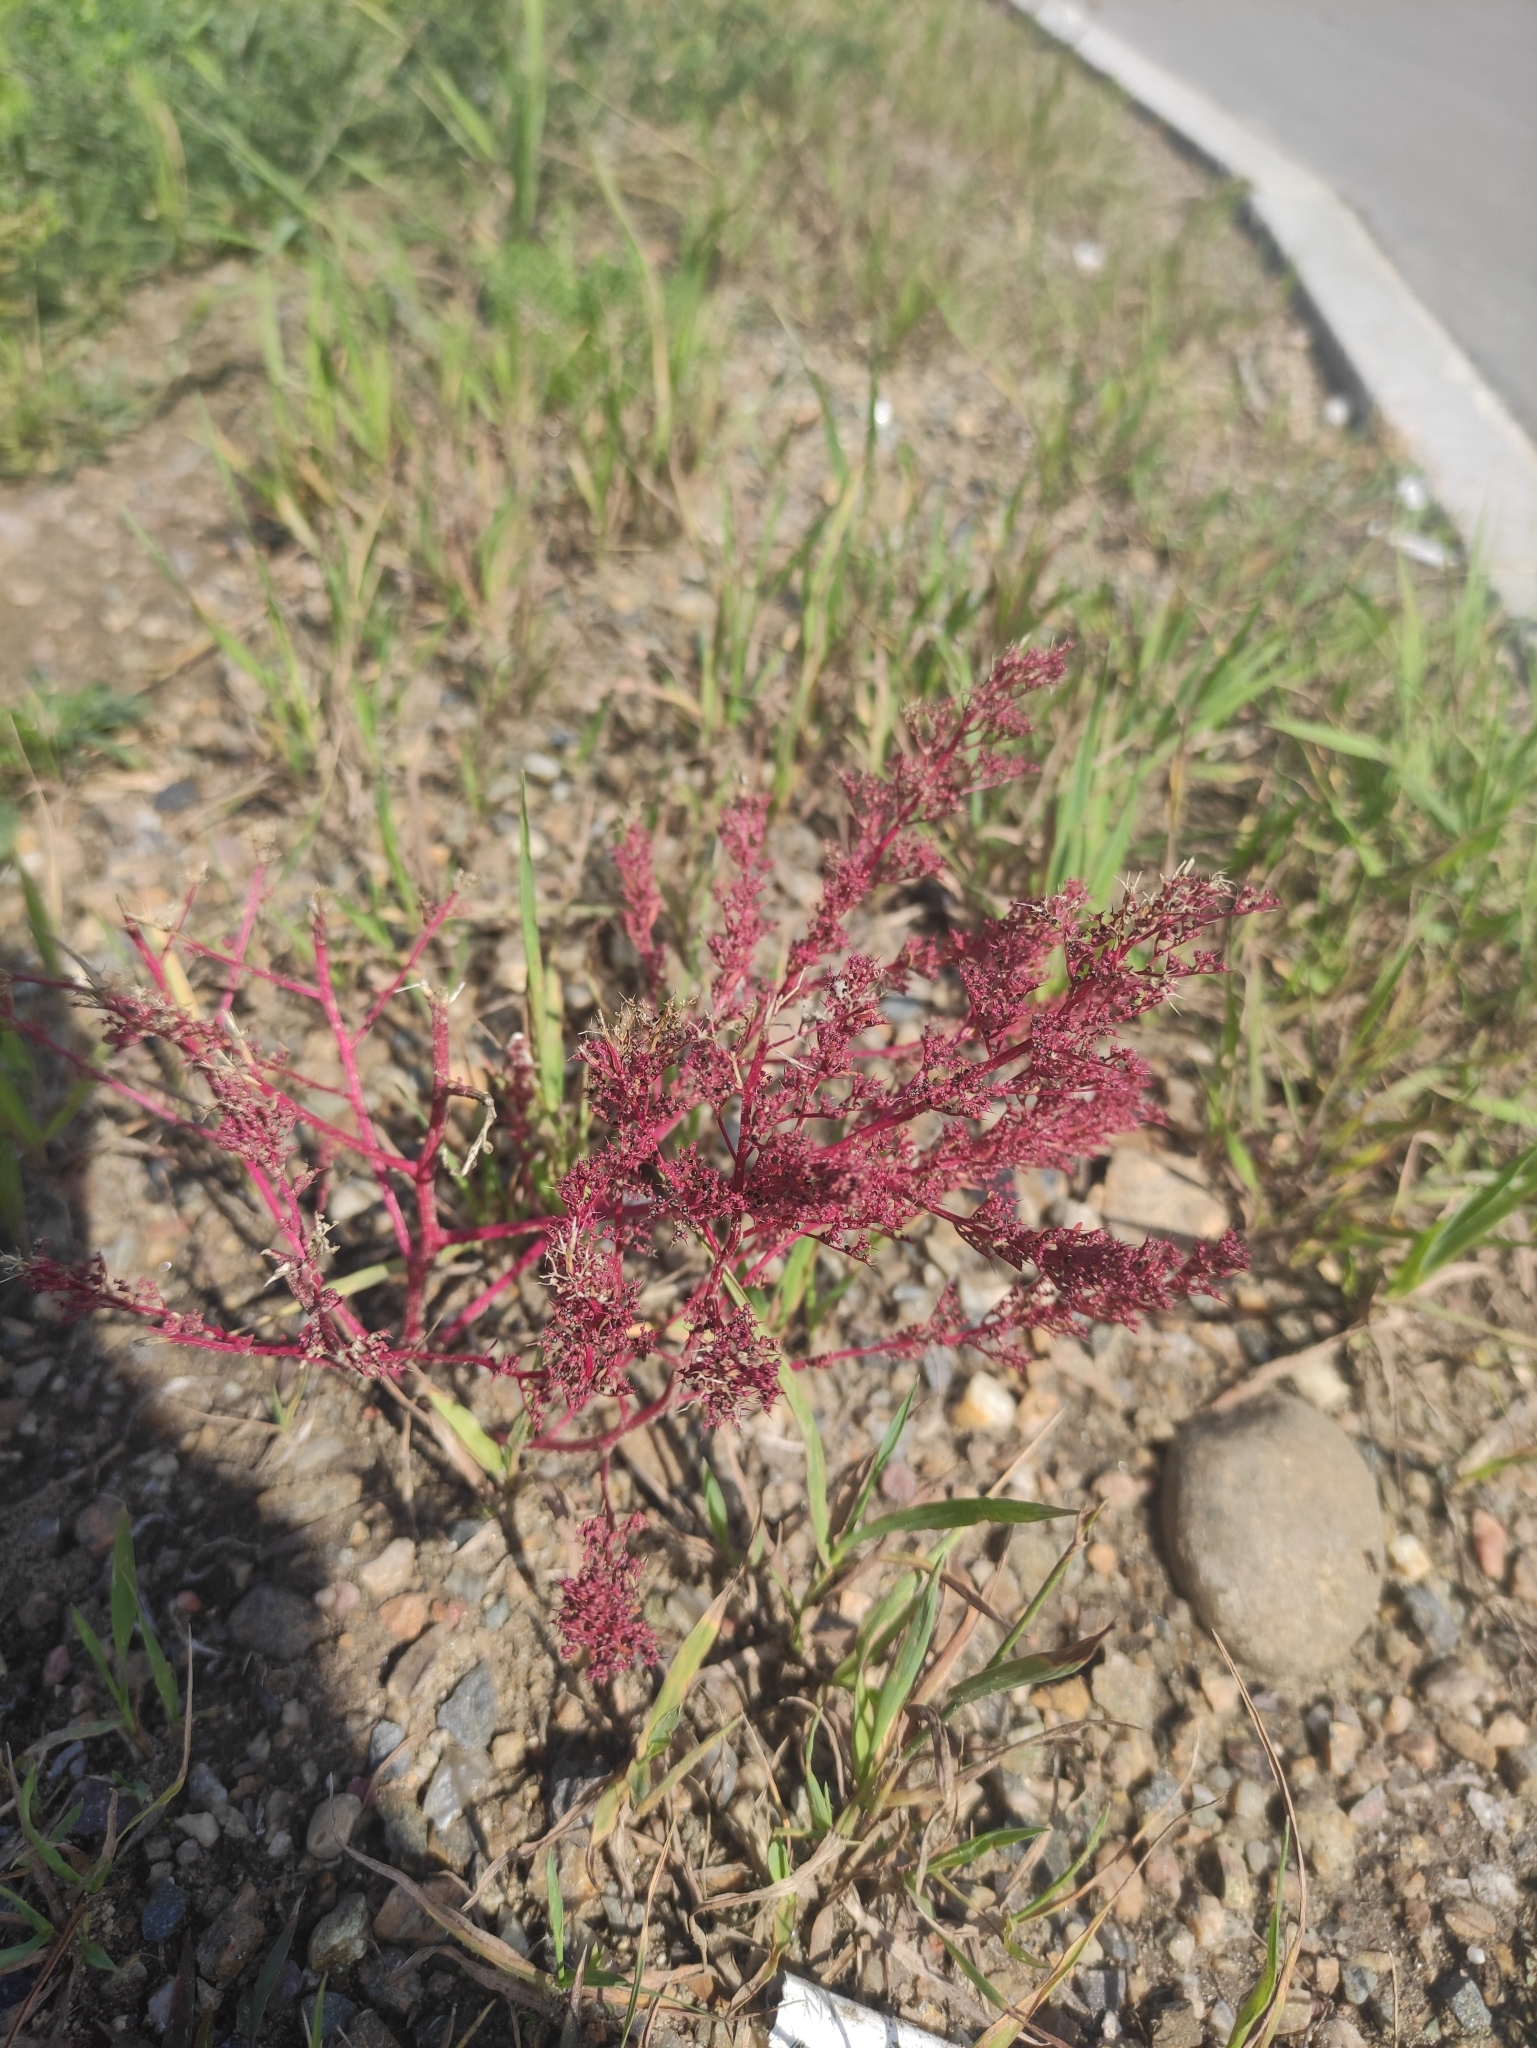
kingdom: Plantae
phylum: Tracheophyta
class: Magnoliopsida
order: Caryophyllales
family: Amaranthaceae
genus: Teloxys
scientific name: Teloxys aristata
